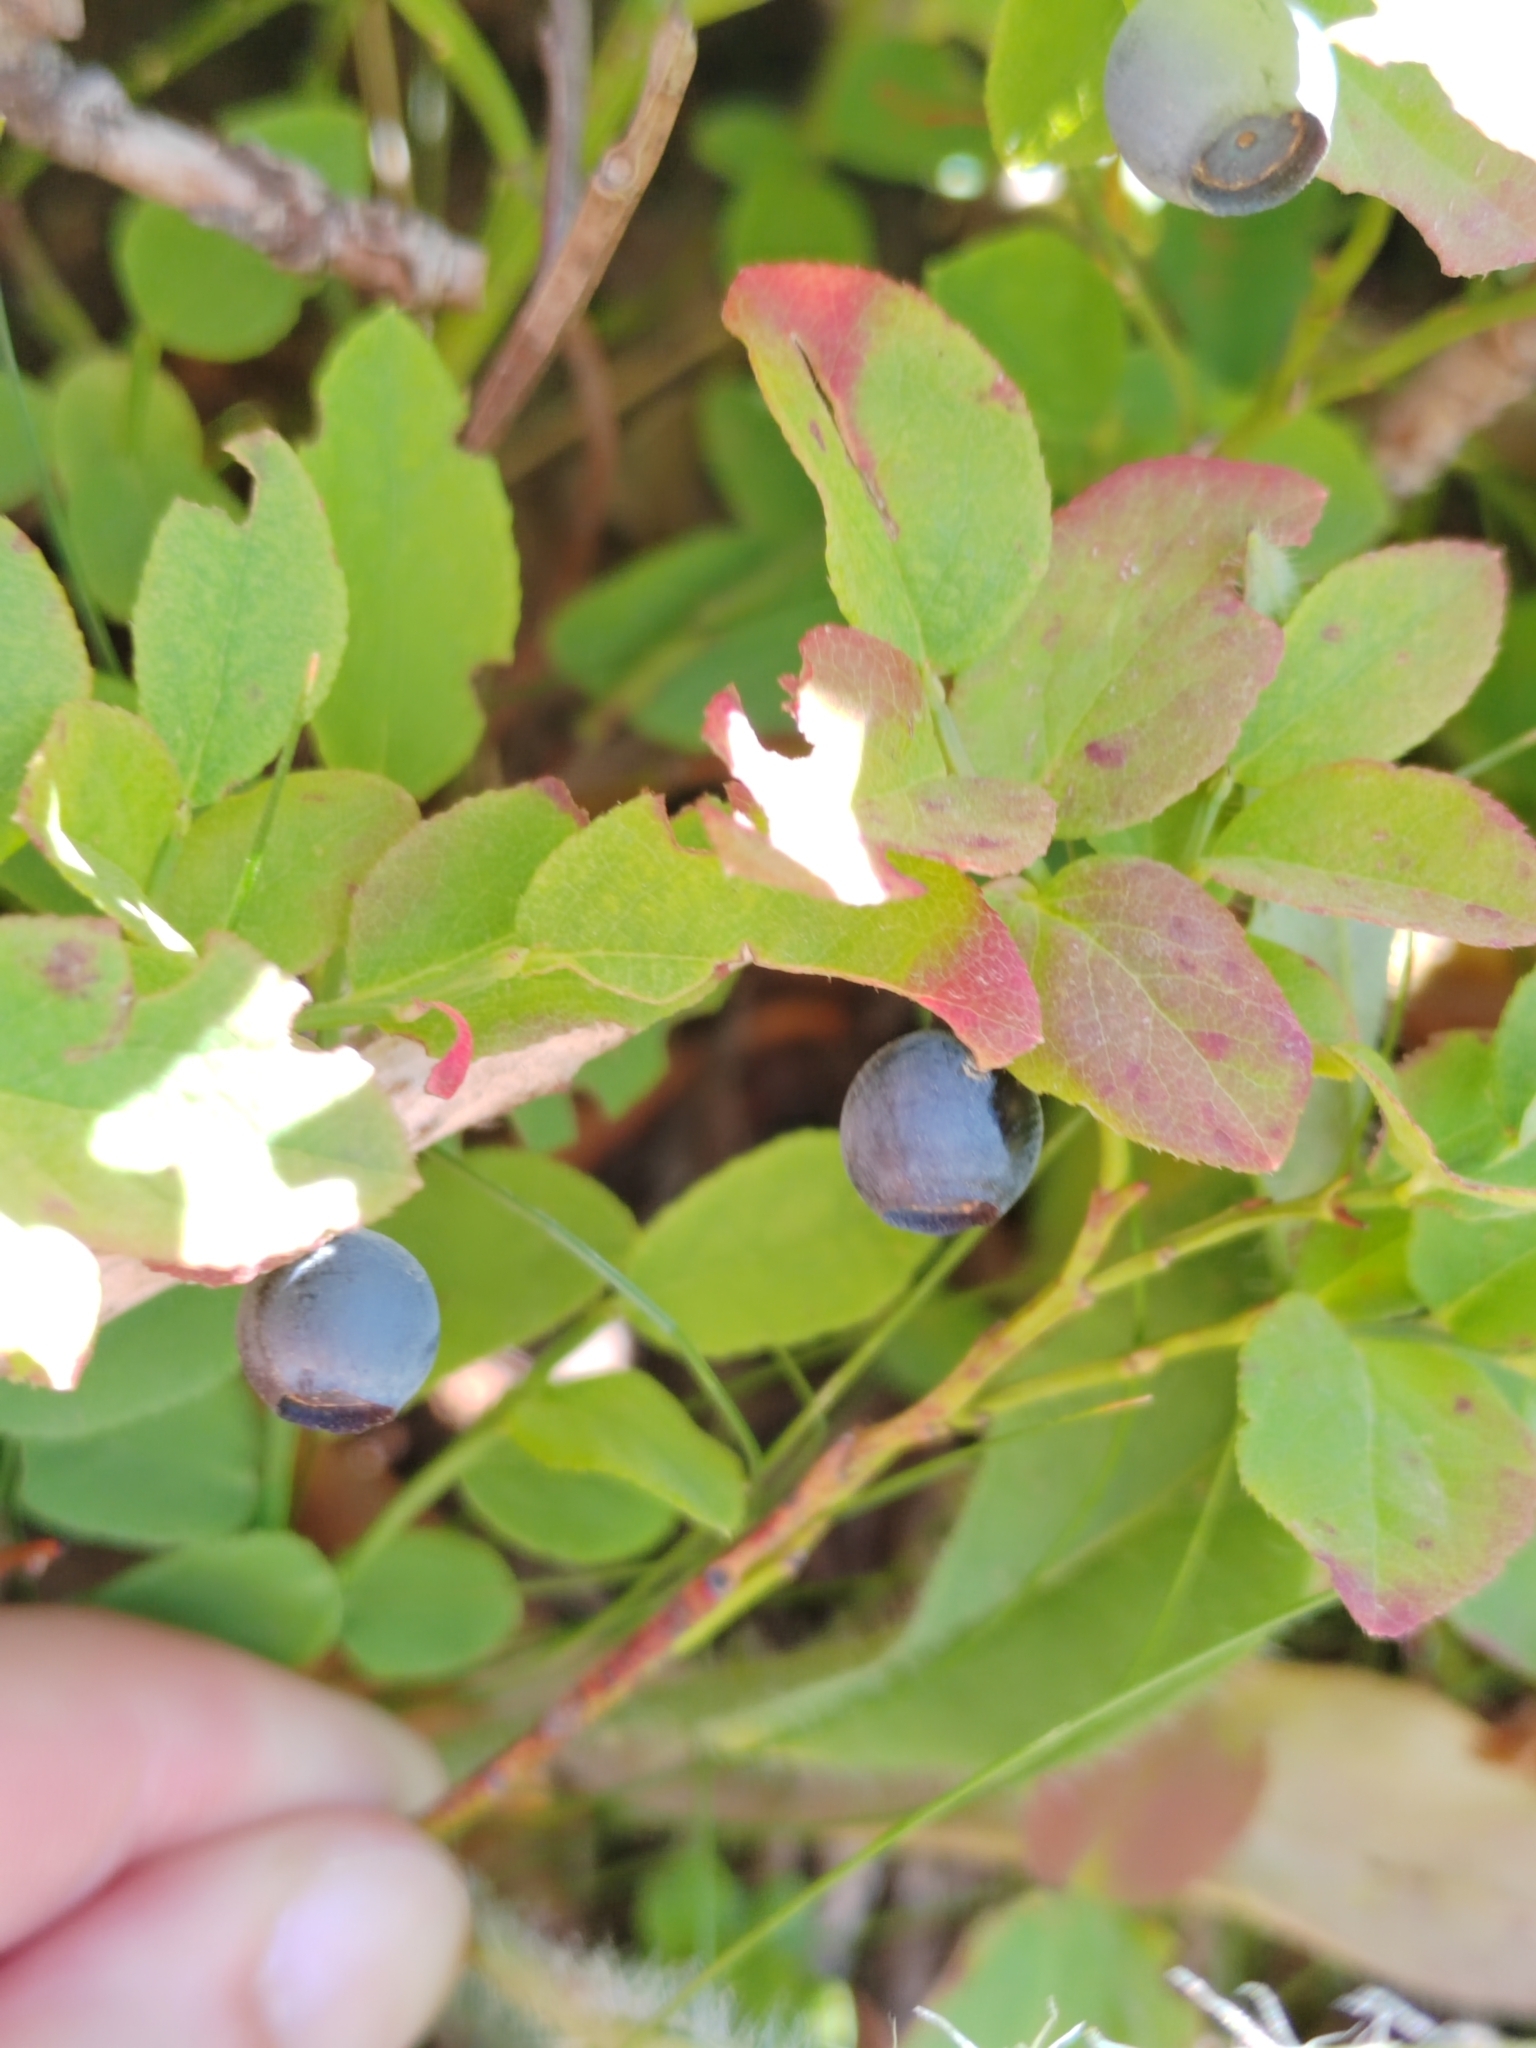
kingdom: Plantae
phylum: Tracheophyta
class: Magnoliopsida
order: Ericales
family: Ericaceae
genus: Vaccinium
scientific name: Vaccinium myrtillus
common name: Bilberry
